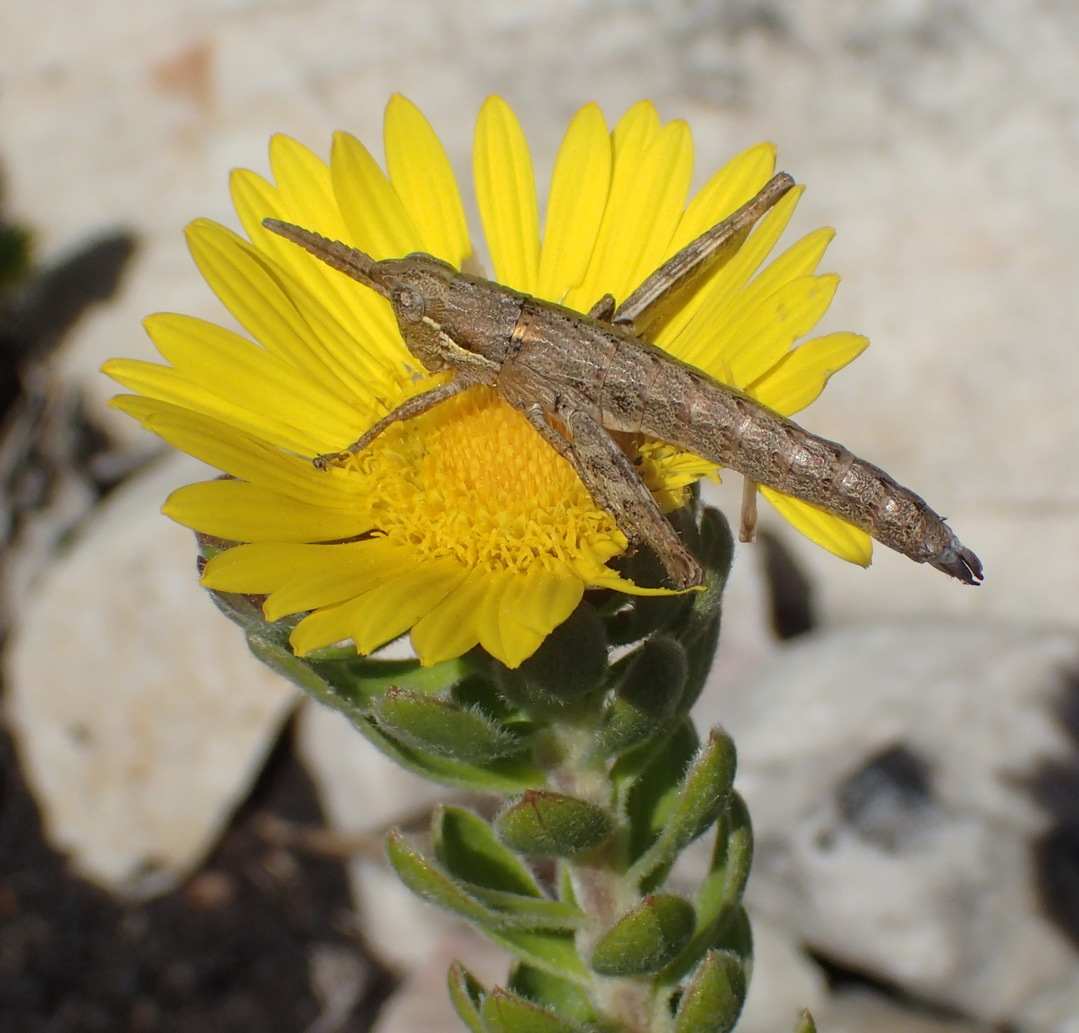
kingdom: Plantae
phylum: Tracheophyta
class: Magnoliopsida
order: Asterales
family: Asteraceae
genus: Oedera
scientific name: Oedera calycina
